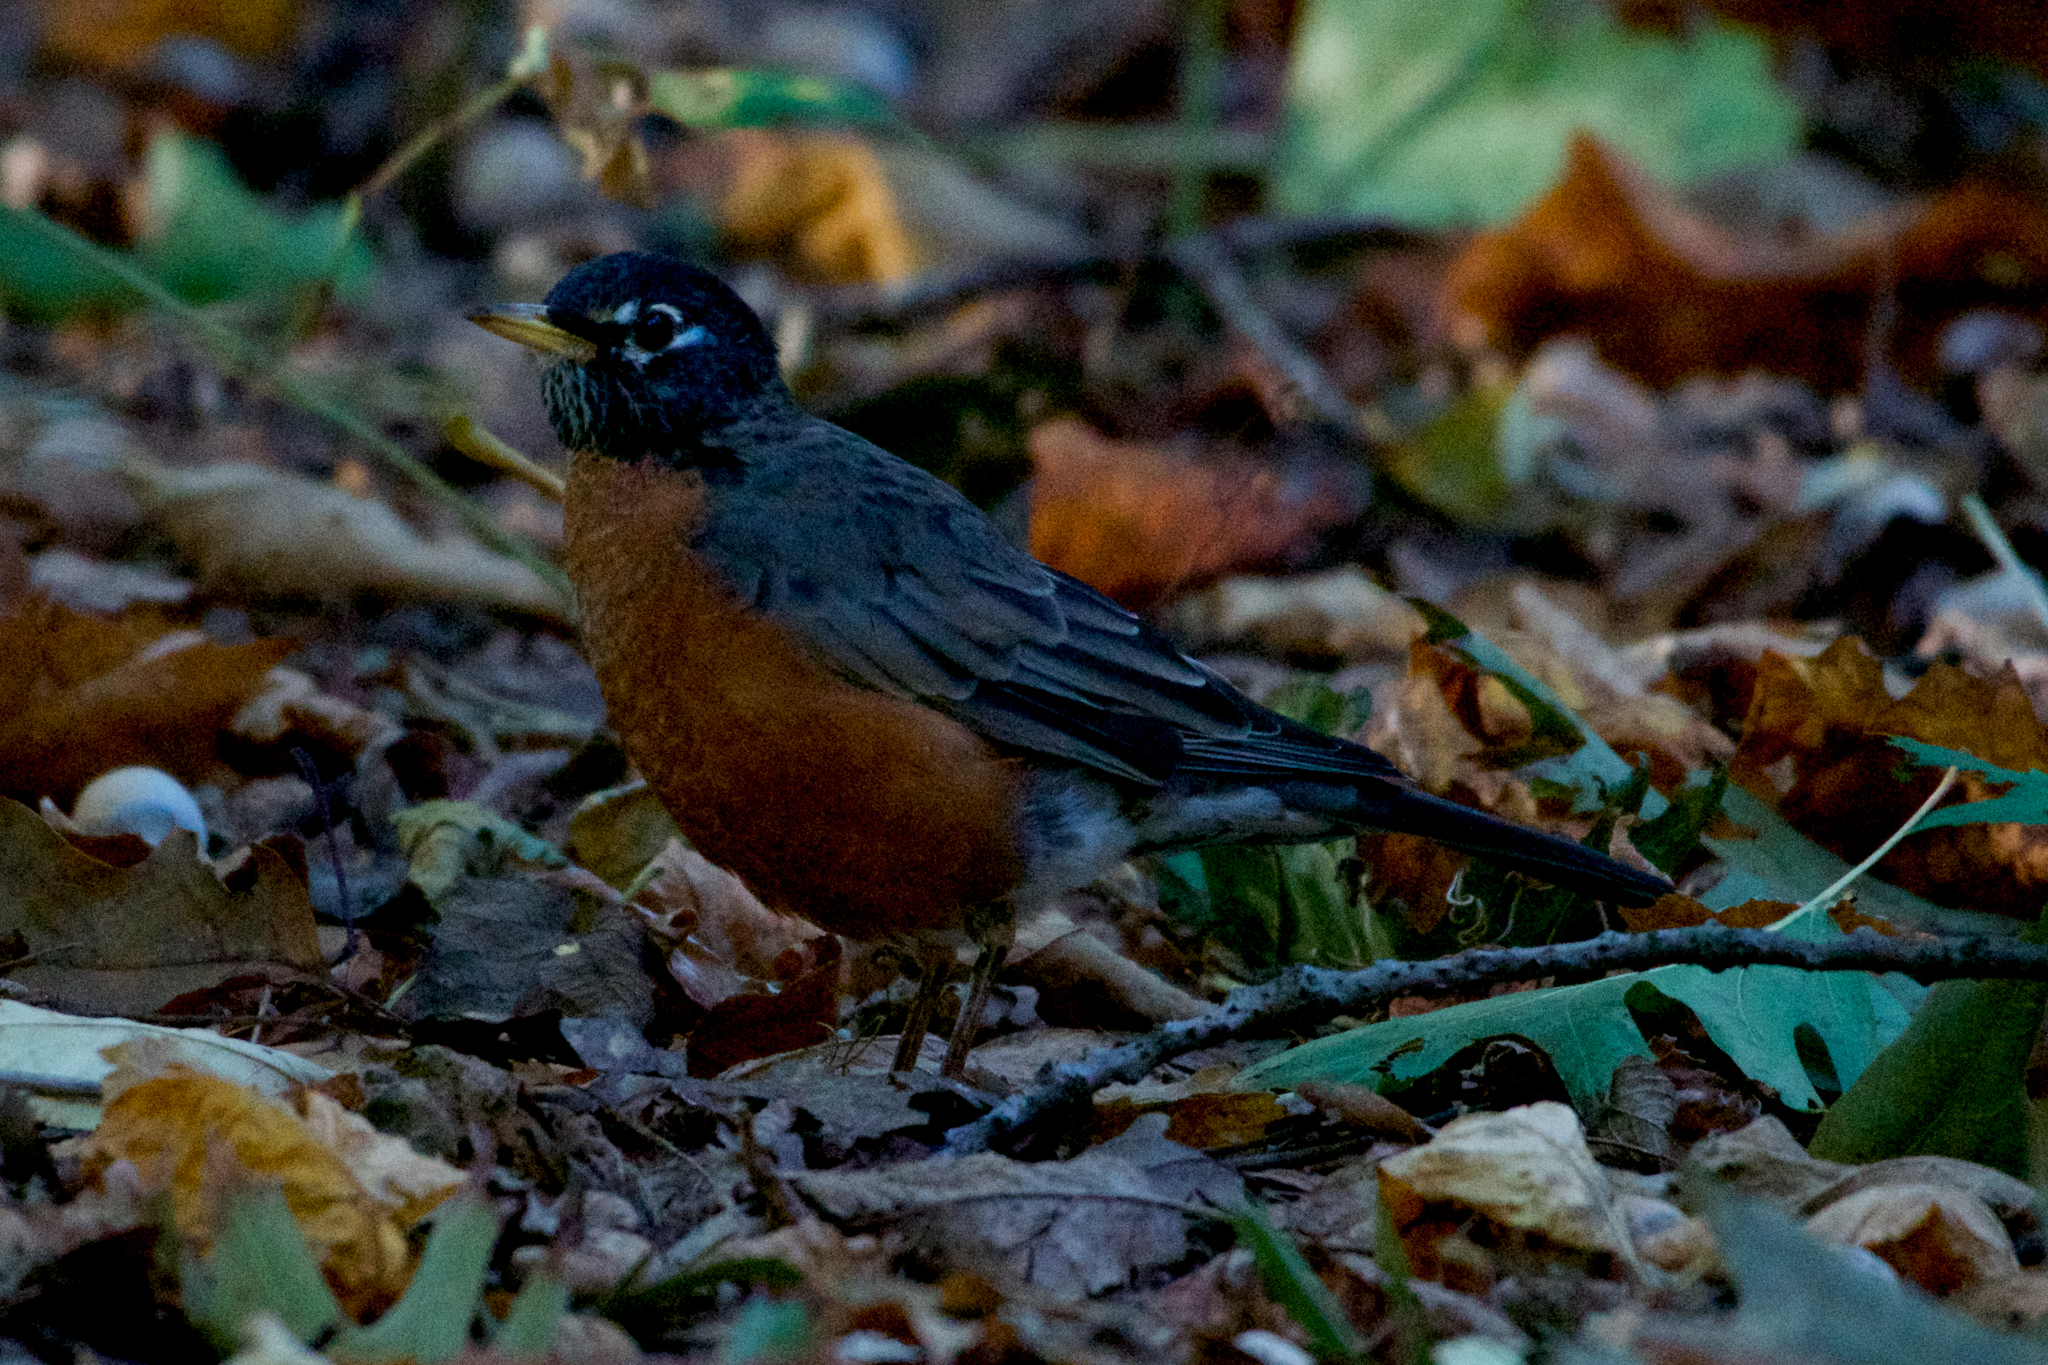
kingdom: Animalia
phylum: Chordata
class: Aves
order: Passeriformes
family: Turdidae
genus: Turdus
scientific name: Turdus migratorius
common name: American robin
